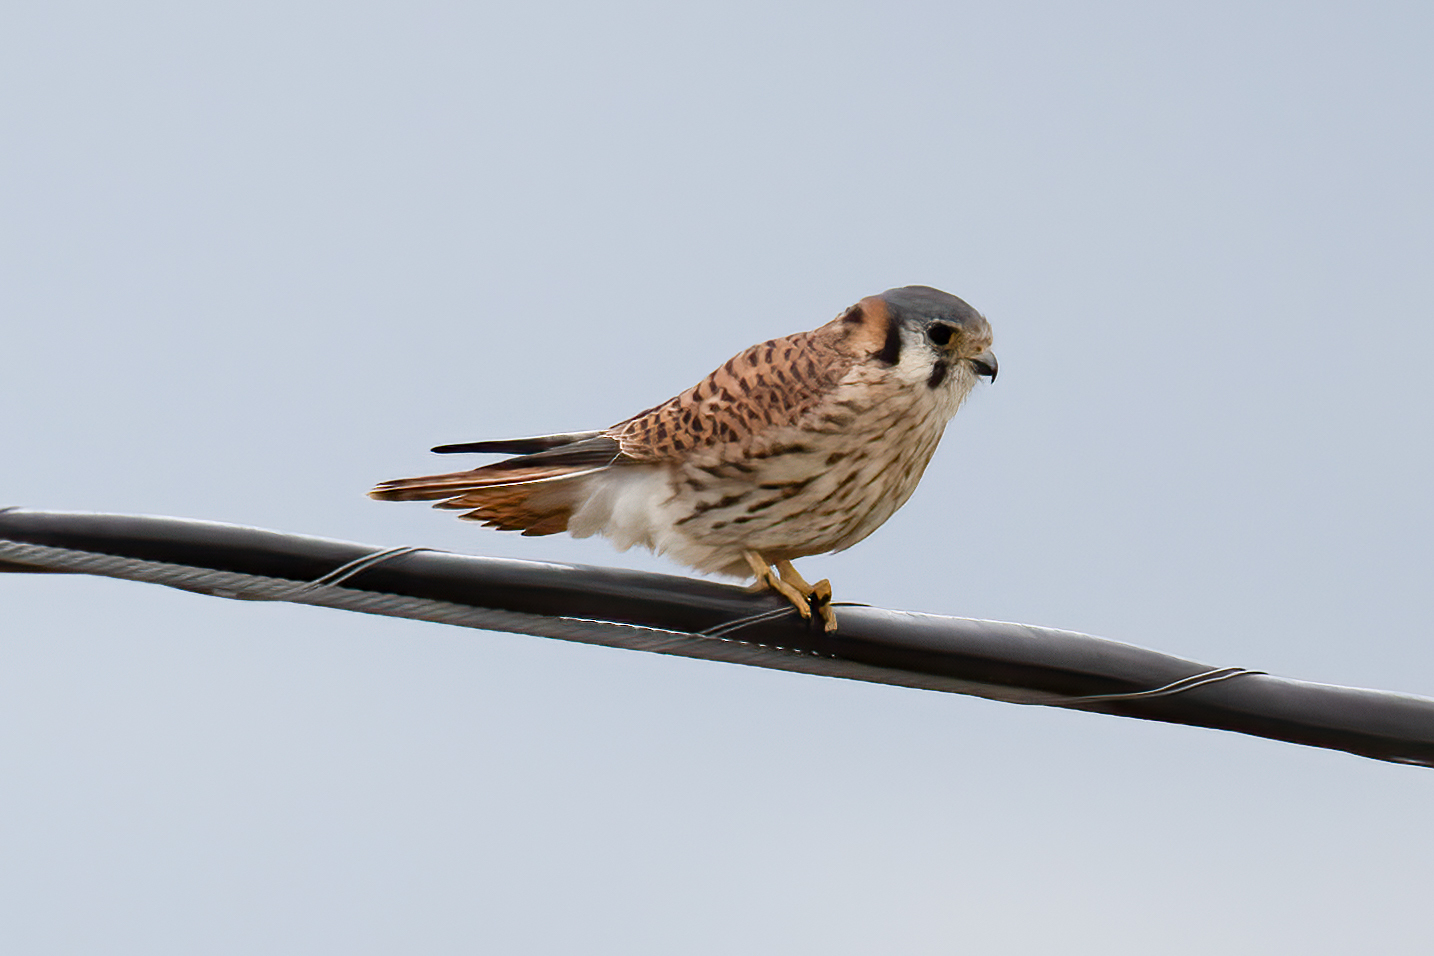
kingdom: Animalia
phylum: Chordata
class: Aves
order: Falconiformes
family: Falconidae
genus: Falco
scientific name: Falco sparverius
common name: American kestrel
